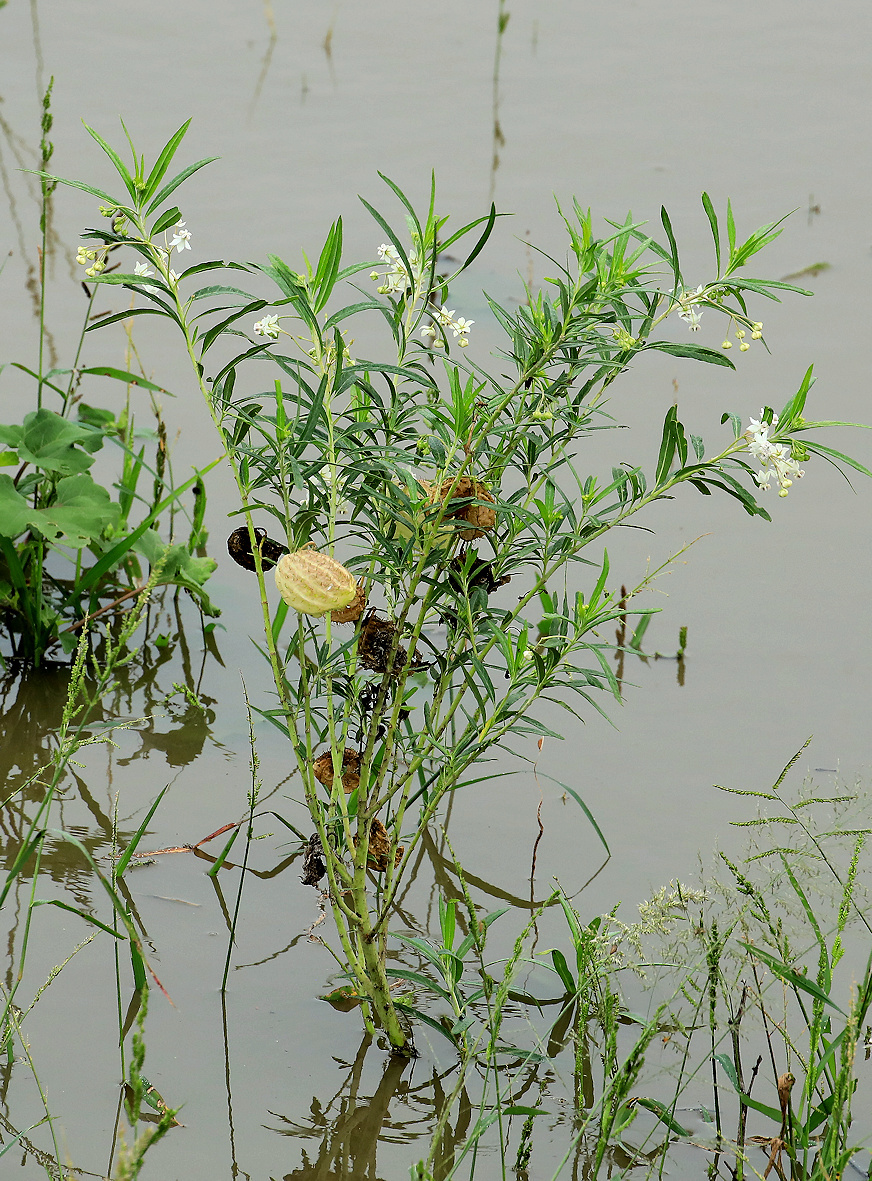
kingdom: Plantae
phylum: Tracheophyta
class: Magnoliopsida
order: Gentianales
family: Apocynaceae
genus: Gomphocarpus
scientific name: Gomphocarpus physocarpus
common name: Balloon cotton bush
